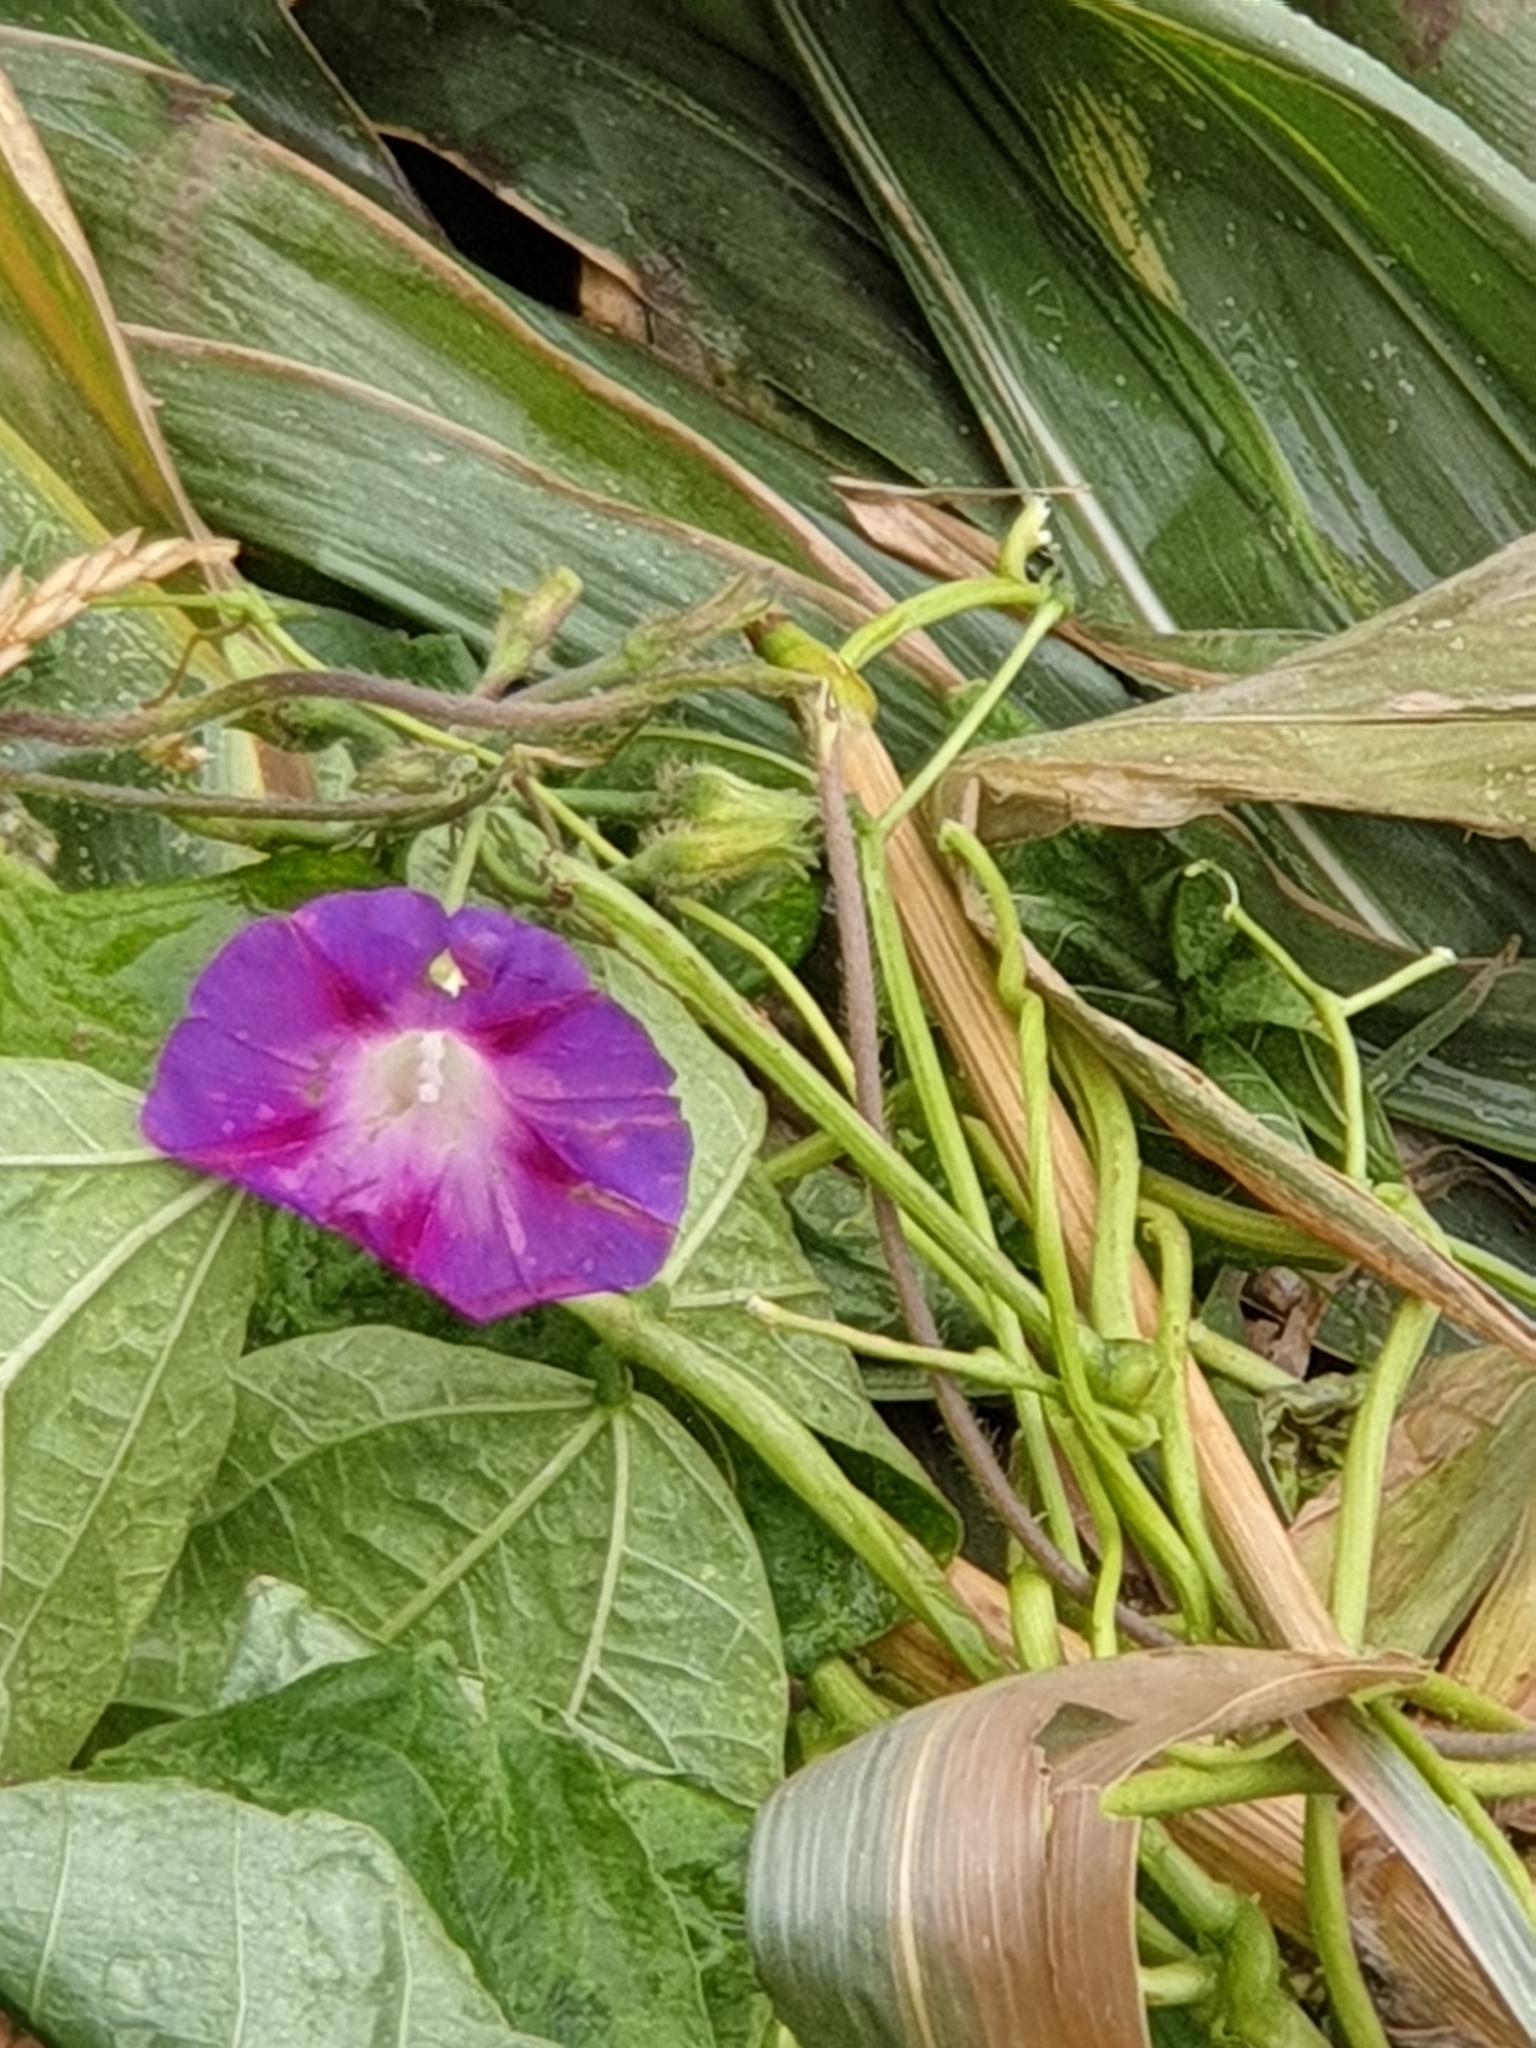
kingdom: Plantae
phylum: Tracheophyta
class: Magnoliopsida
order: Solanales
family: Convolvulaceae
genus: Ipomoea
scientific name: Ipomoea purpurea
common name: Common morning-glory
